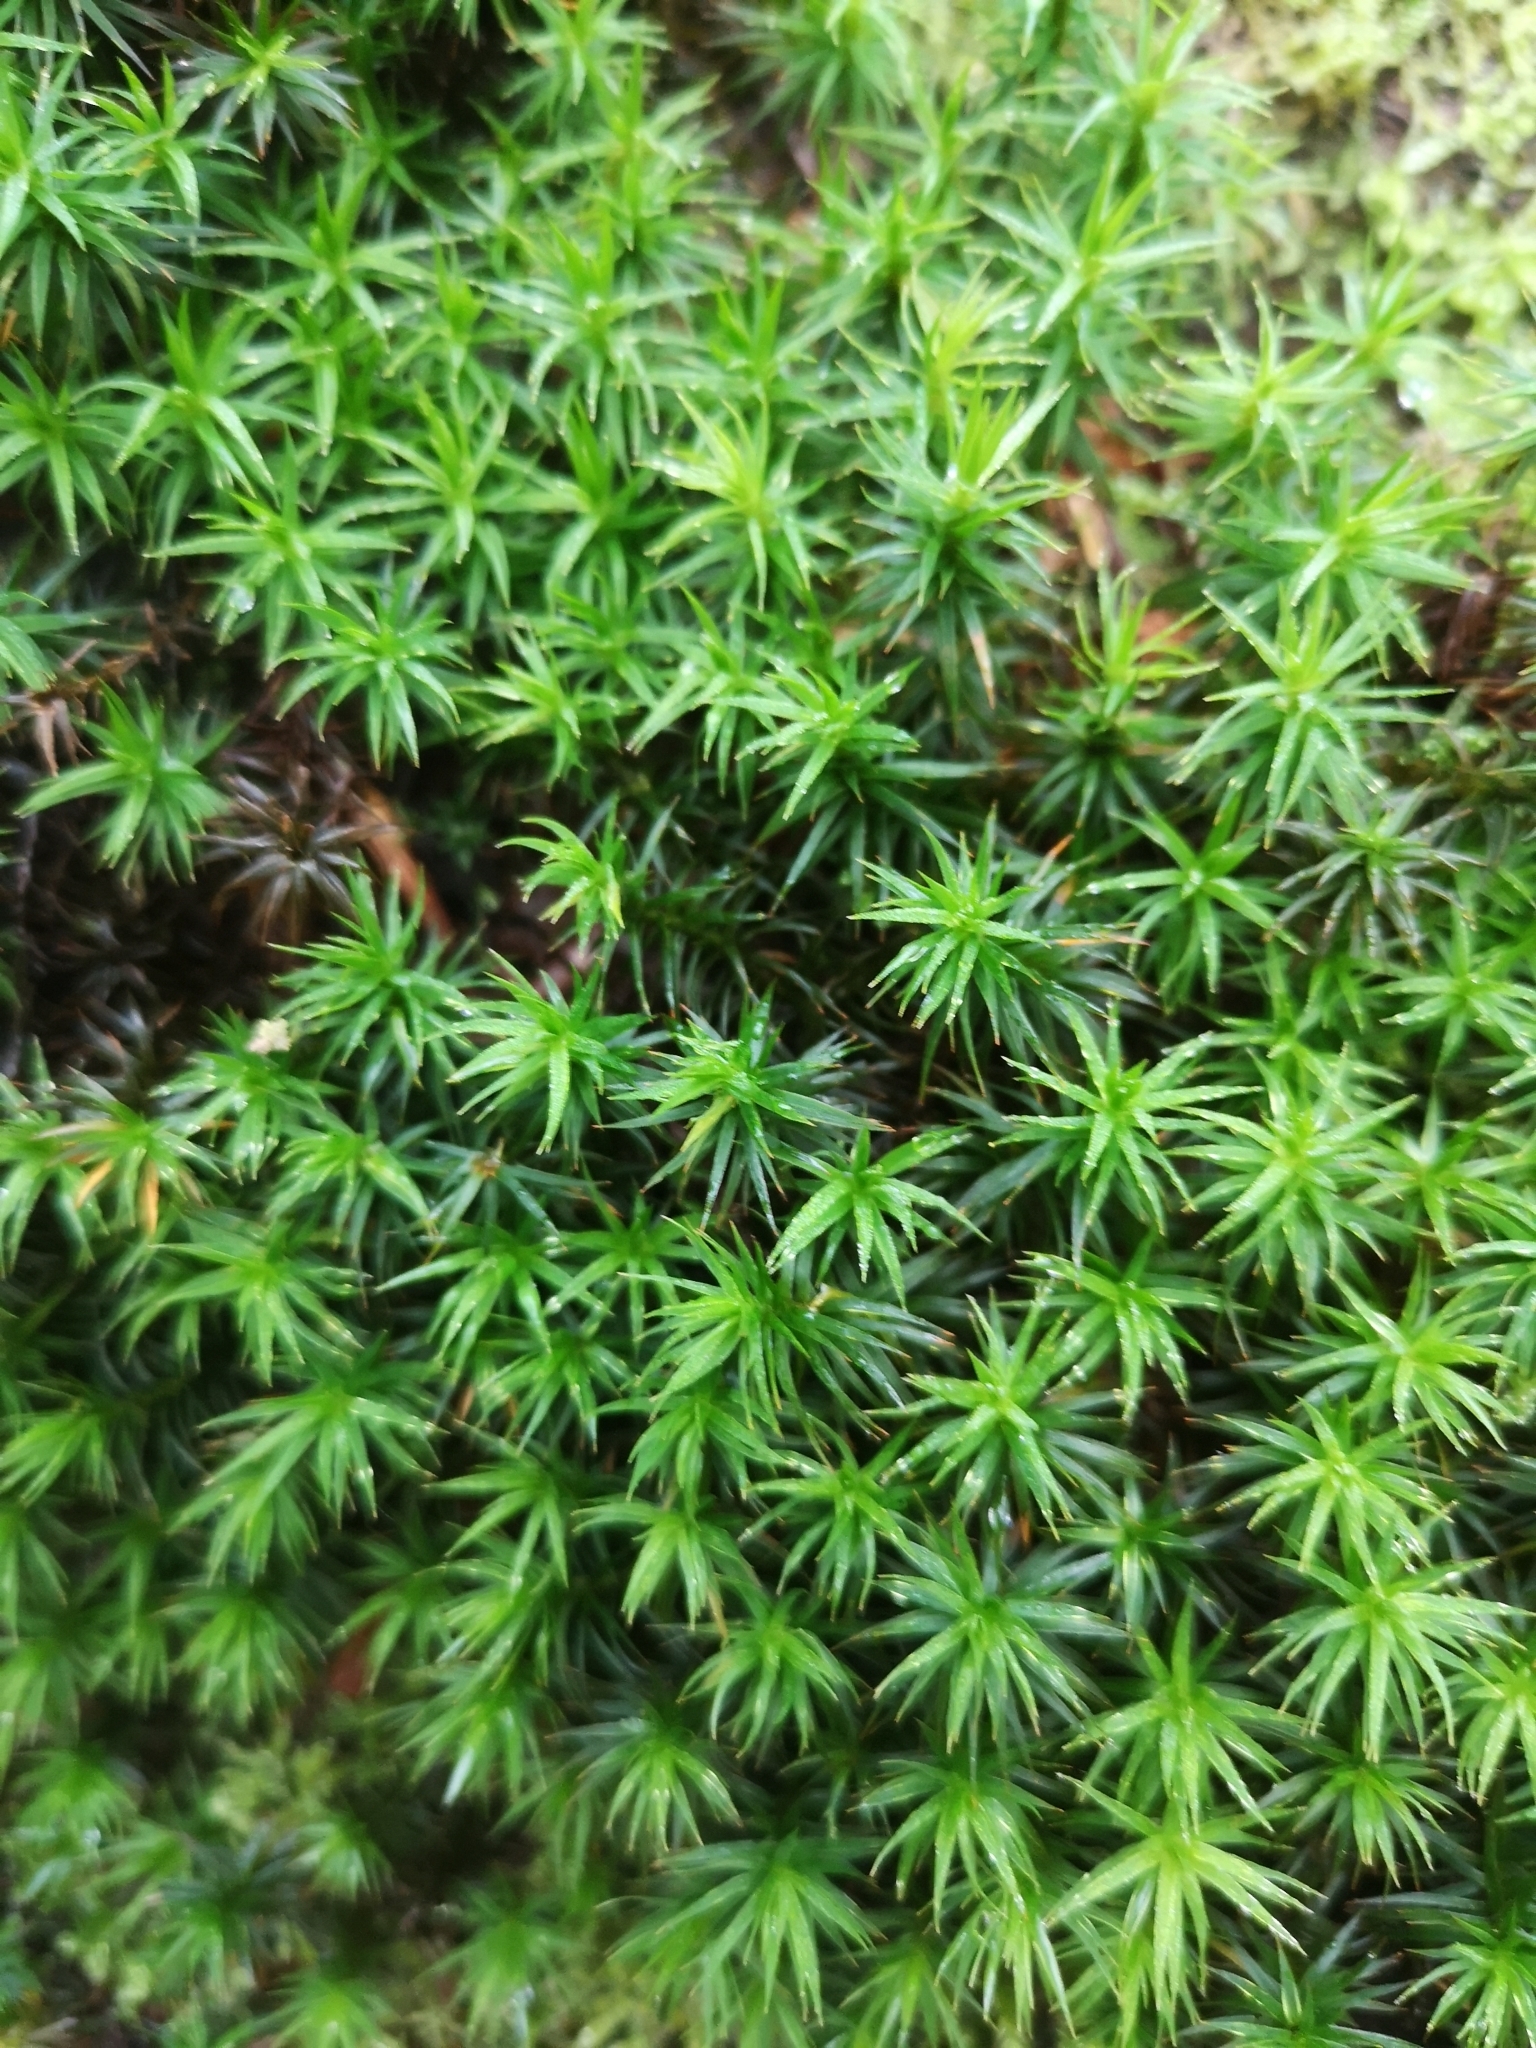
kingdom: Plantae
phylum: Bryophyta
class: Polytrichopsida
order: Polytrichales
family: Polytrichaceae
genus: Polytrichum
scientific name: Polytrichum formosum
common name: Bank haircap moss
